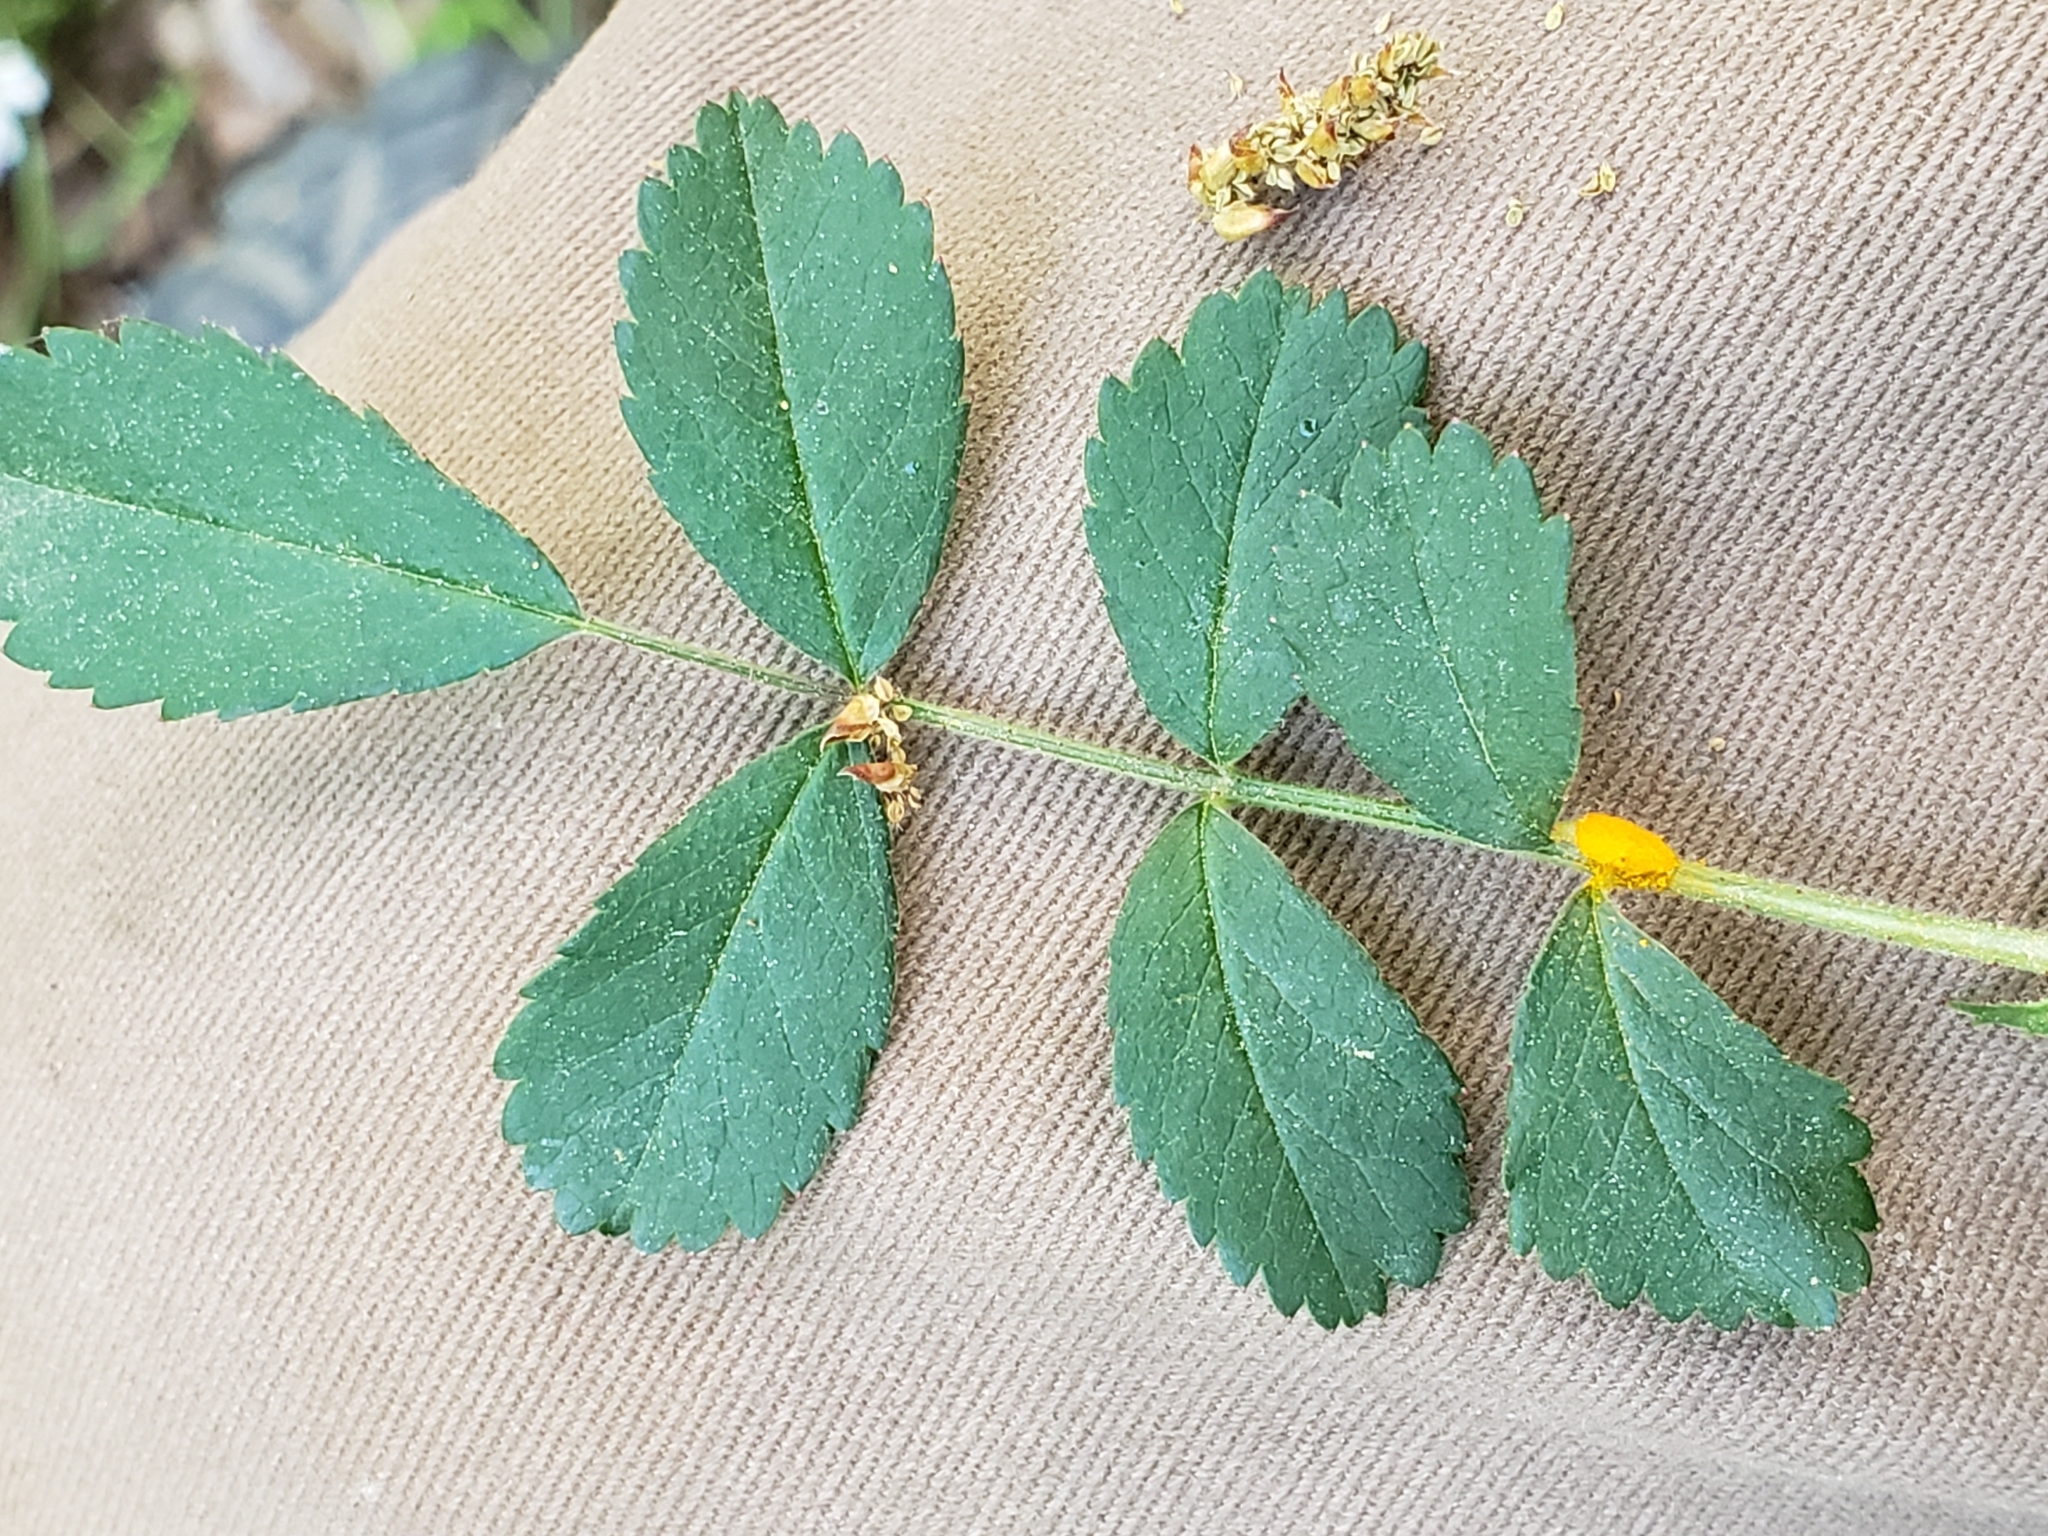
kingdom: Fungi
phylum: Basidiomycota
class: Pucciniomycetes
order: Pucciniales
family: Phragmidiaceae
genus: Phragmidium
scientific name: Phragmidium rosae-multiflorae
